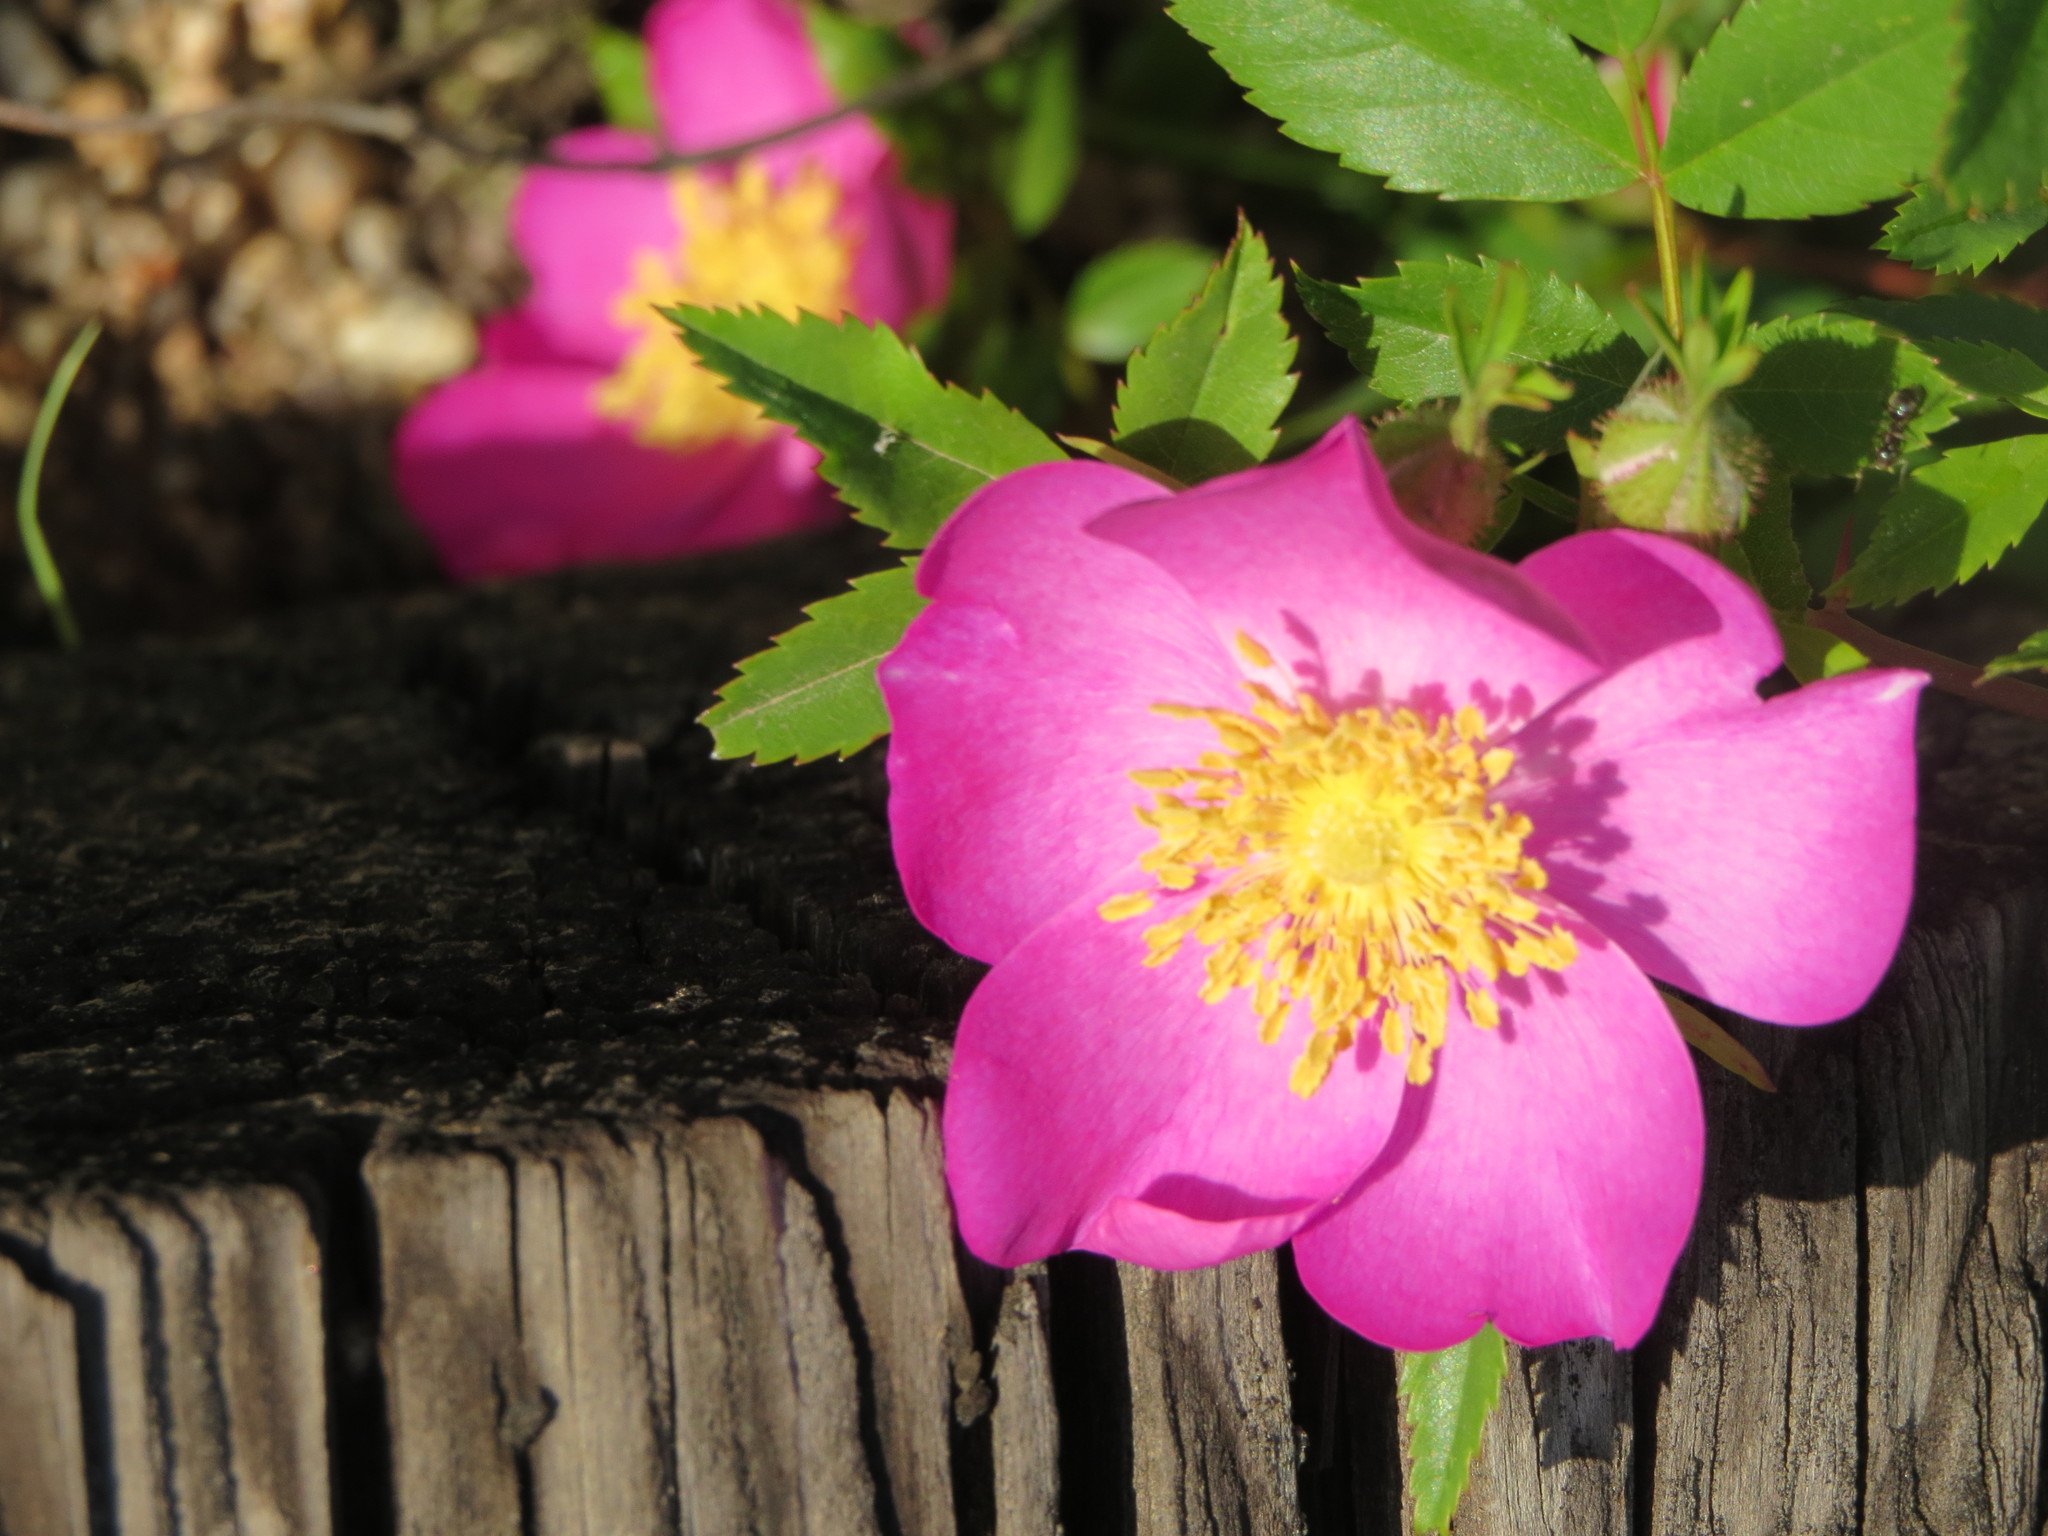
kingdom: Plantae
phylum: Tracheophyta
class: Magnoliopsida
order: Rosales
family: Rosaceae
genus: Rosa
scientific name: Rosa virginiana
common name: Virginian rose
